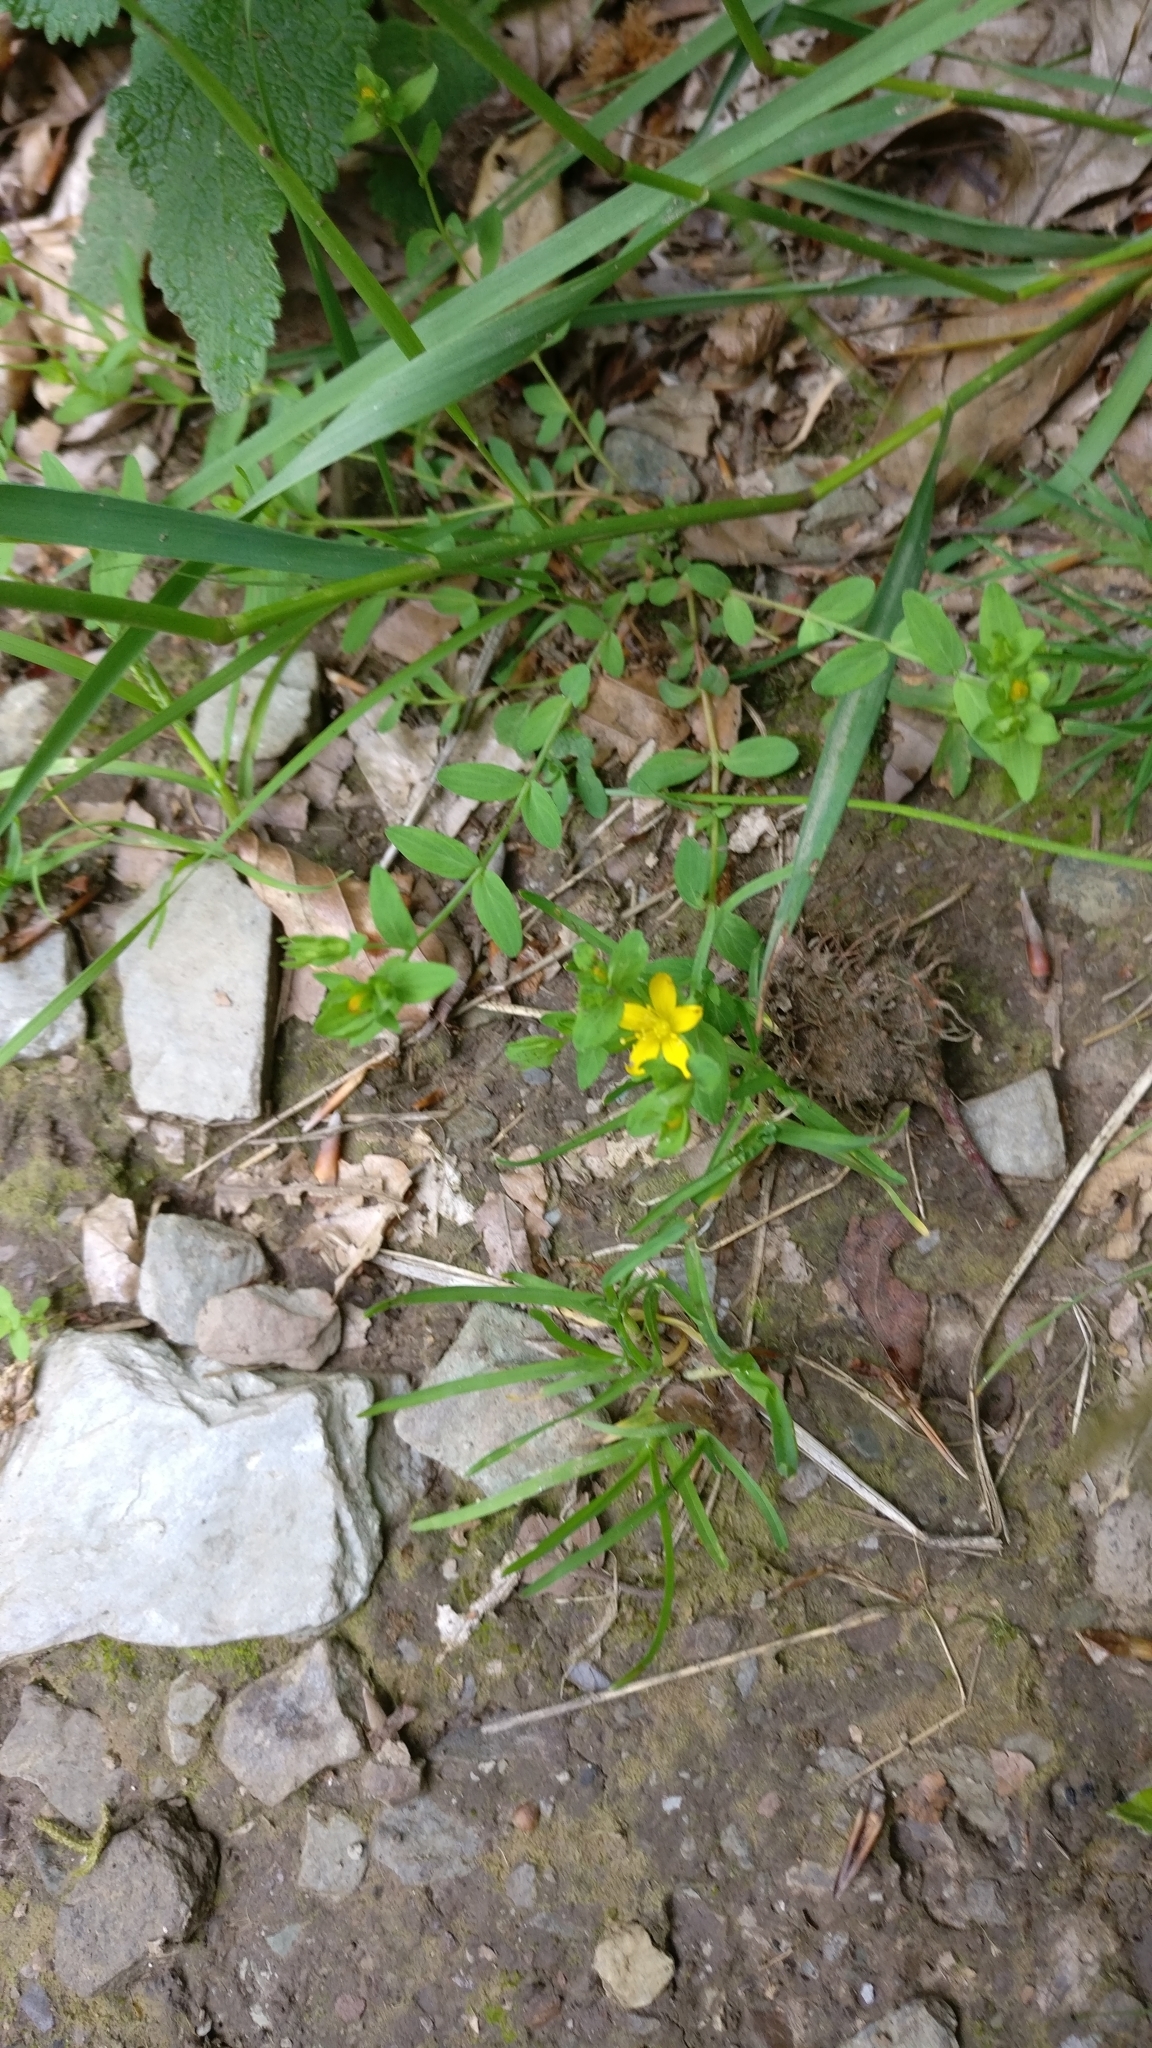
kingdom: Plantae
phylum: Tracheophyta
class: Magnoliopsida
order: Malpighiales
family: Hypericaceae
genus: Hypericum
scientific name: Hypericum humifusum
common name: Trailing st. john's-wort
